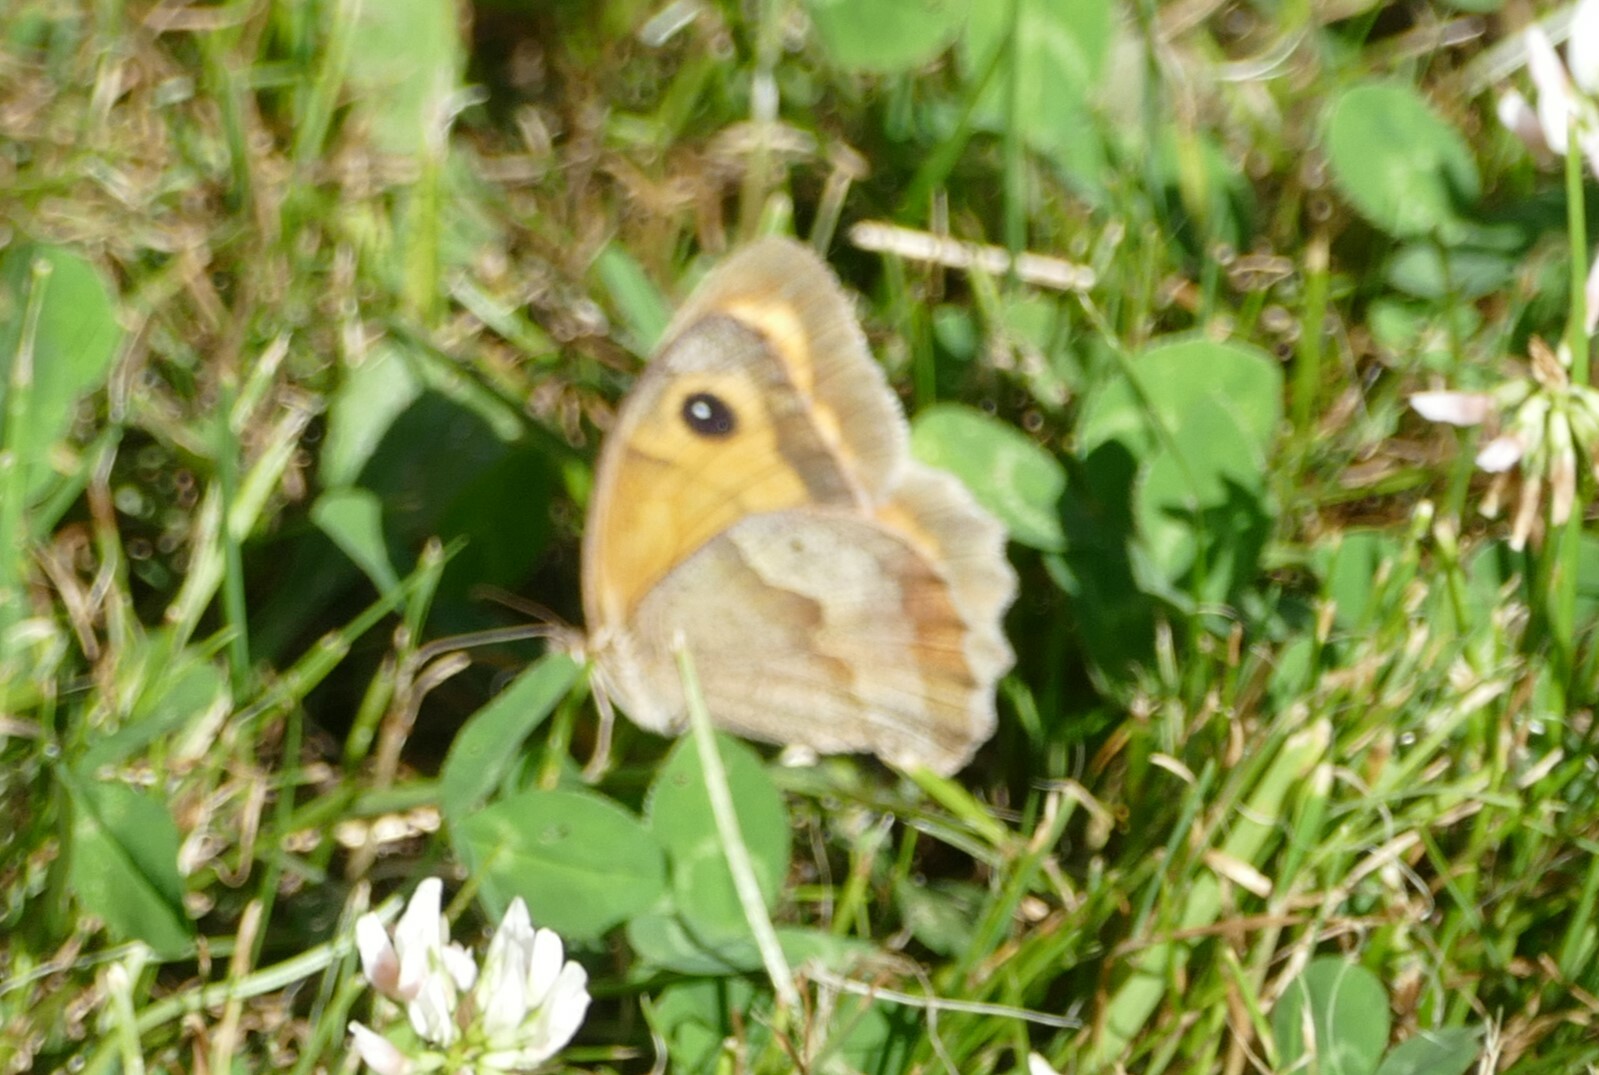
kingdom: Animalia
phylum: Arthropoda
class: Insecta
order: Lepidoptera
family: Nymphalidae
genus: Maniola
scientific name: Maniola jurtina
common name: Meadow brown
